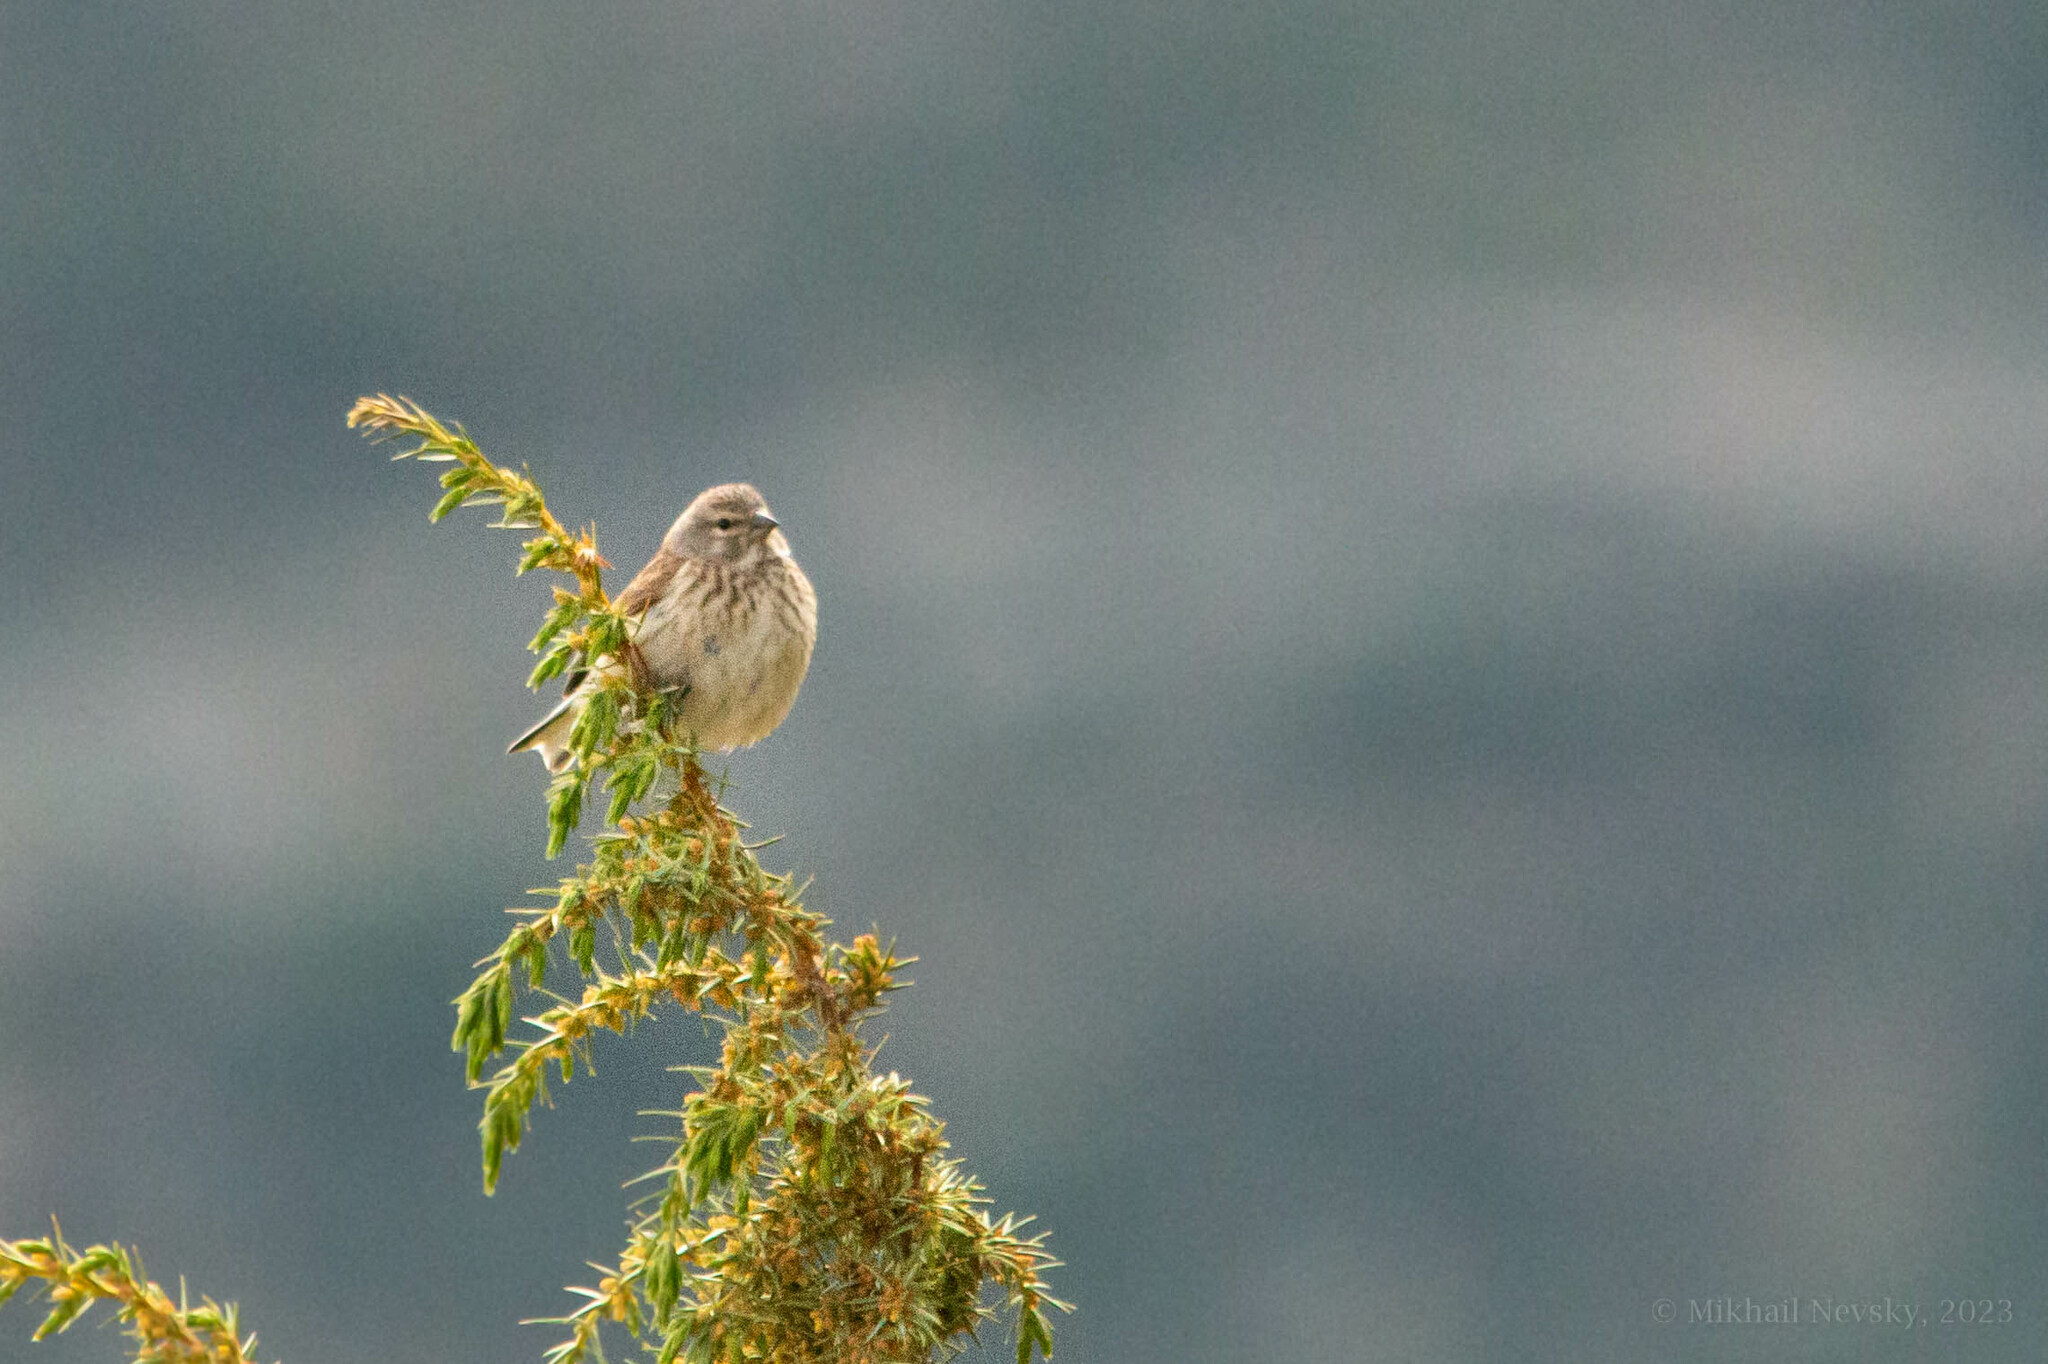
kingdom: Animalia
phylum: Chordata
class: Aves
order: Passeriformes
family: Fringillidae
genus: Linaria
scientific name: Linaria cannabina
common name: Common linnet
